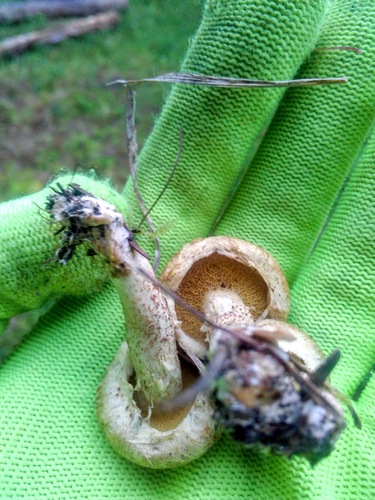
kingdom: Fungi
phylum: Basidiomycota
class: Agaricomycetes
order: Boletales
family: Suillaceae
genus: Suillus
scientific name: Suillus americanus
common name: Chicken fat mushroom
